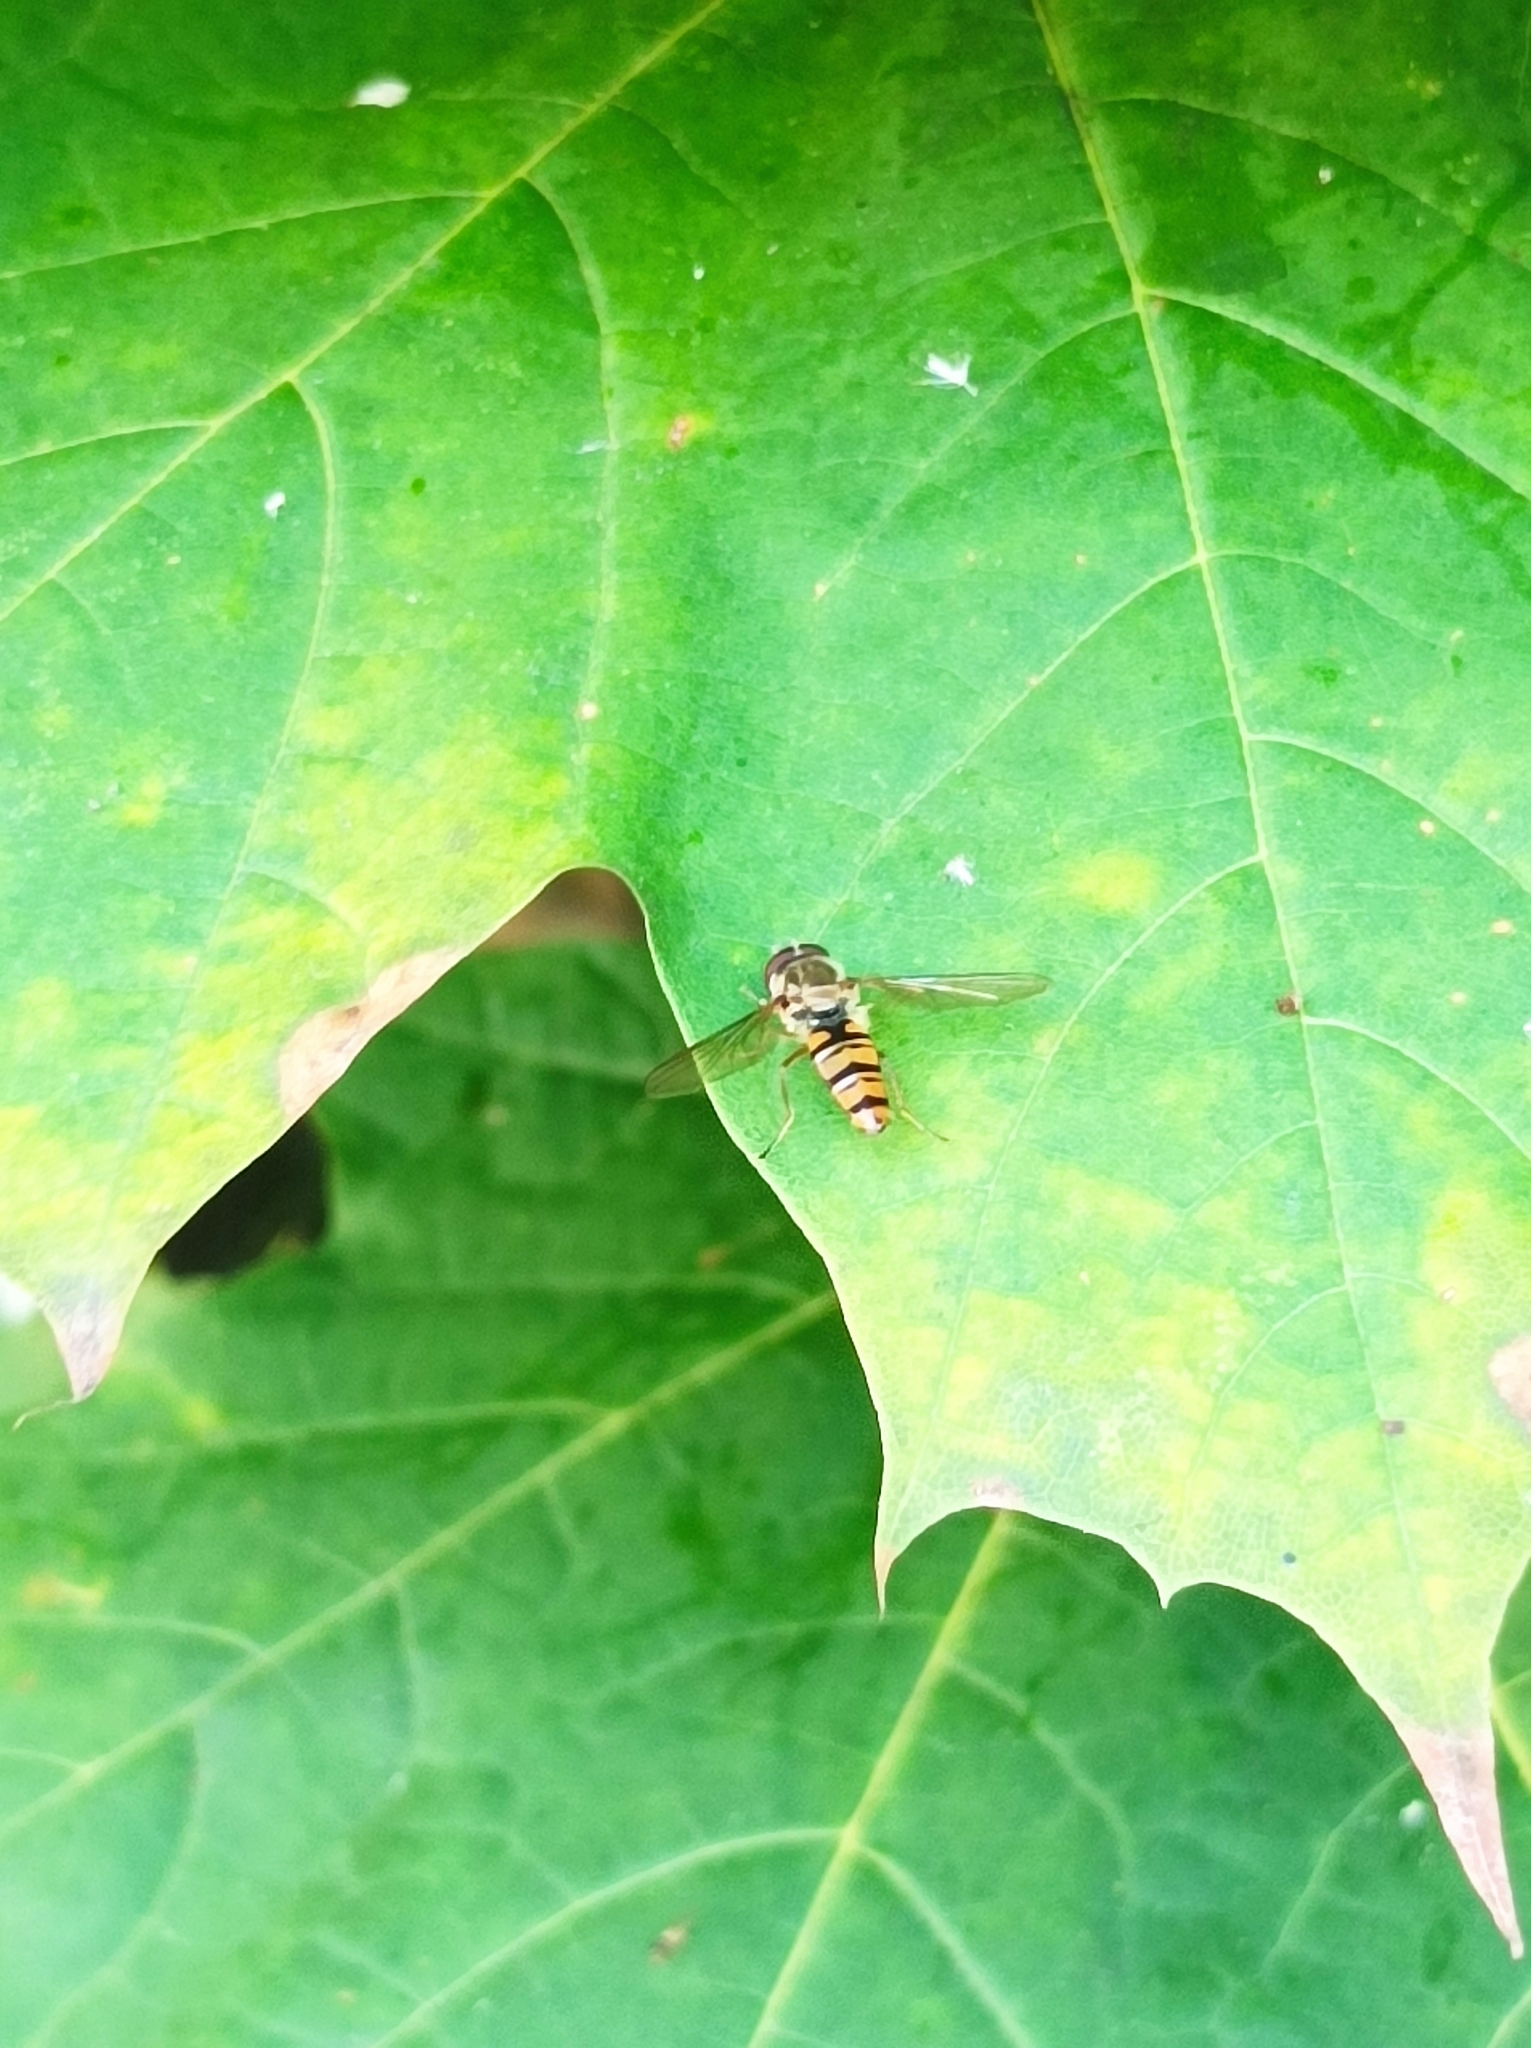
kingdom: Animalia
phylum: Arthropoda
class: Insecta
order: Diptera
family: Syrphidae
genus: Episyrphus
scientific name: Episyrphus balteatus
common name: Marmalade hoverfly
